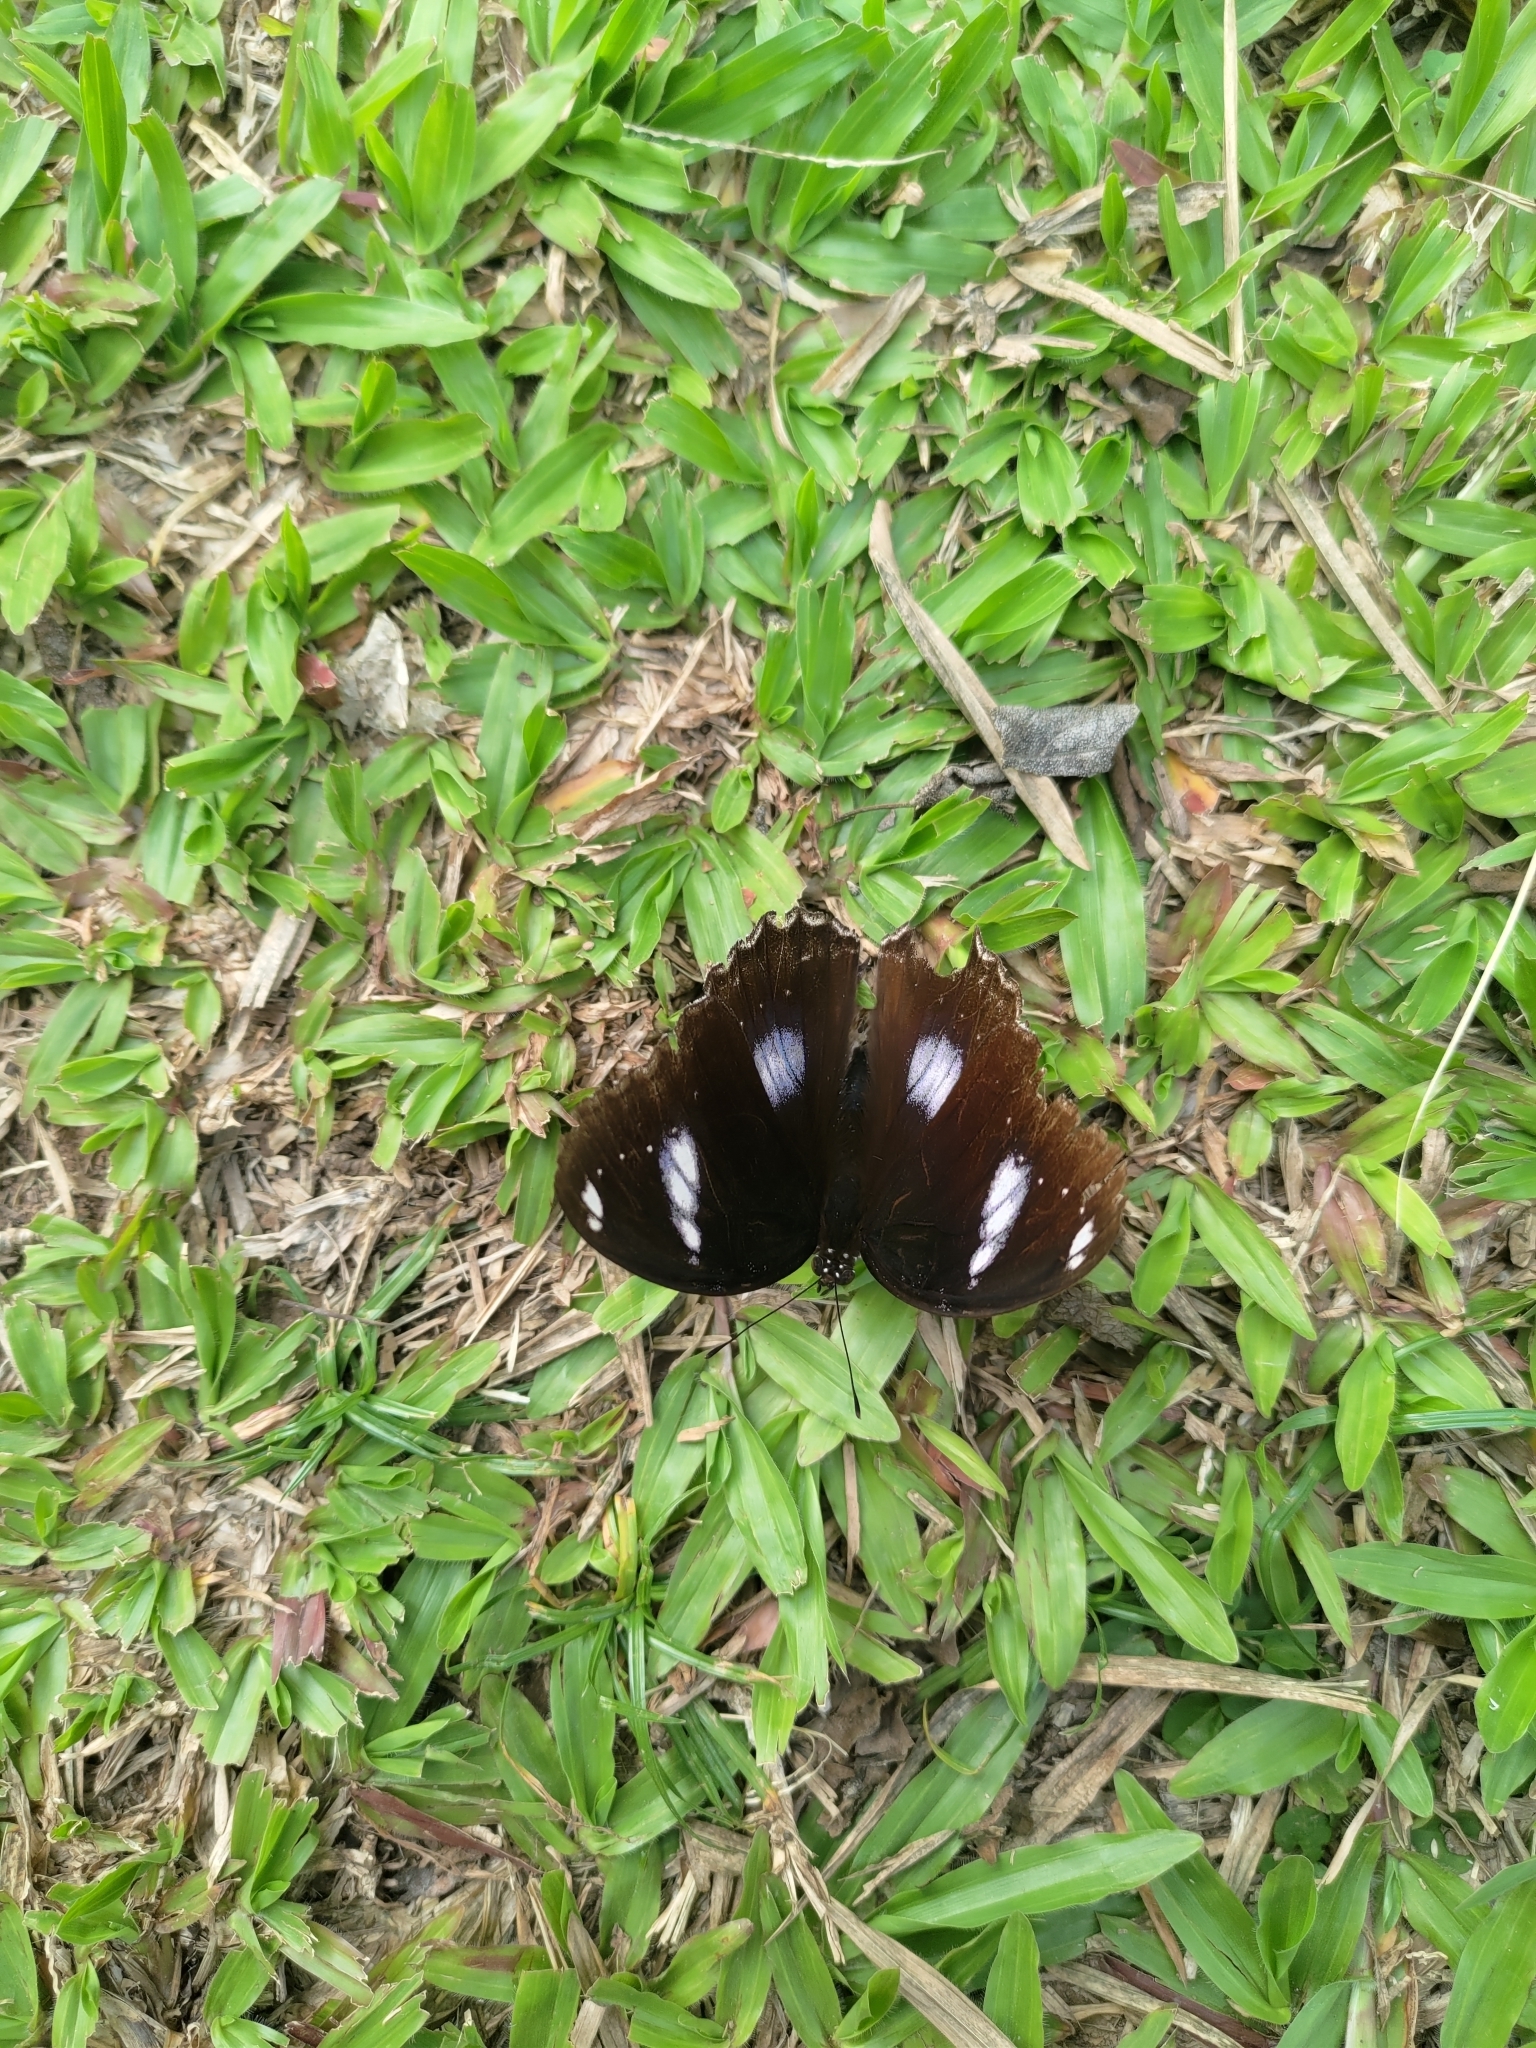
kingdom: Animalia
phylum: Arthropoda
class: Insecta
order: Lepidoptera
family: Nymphalidae
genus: Hypolimnas
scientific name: Hypolimnas bolina
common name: Great eggfly
